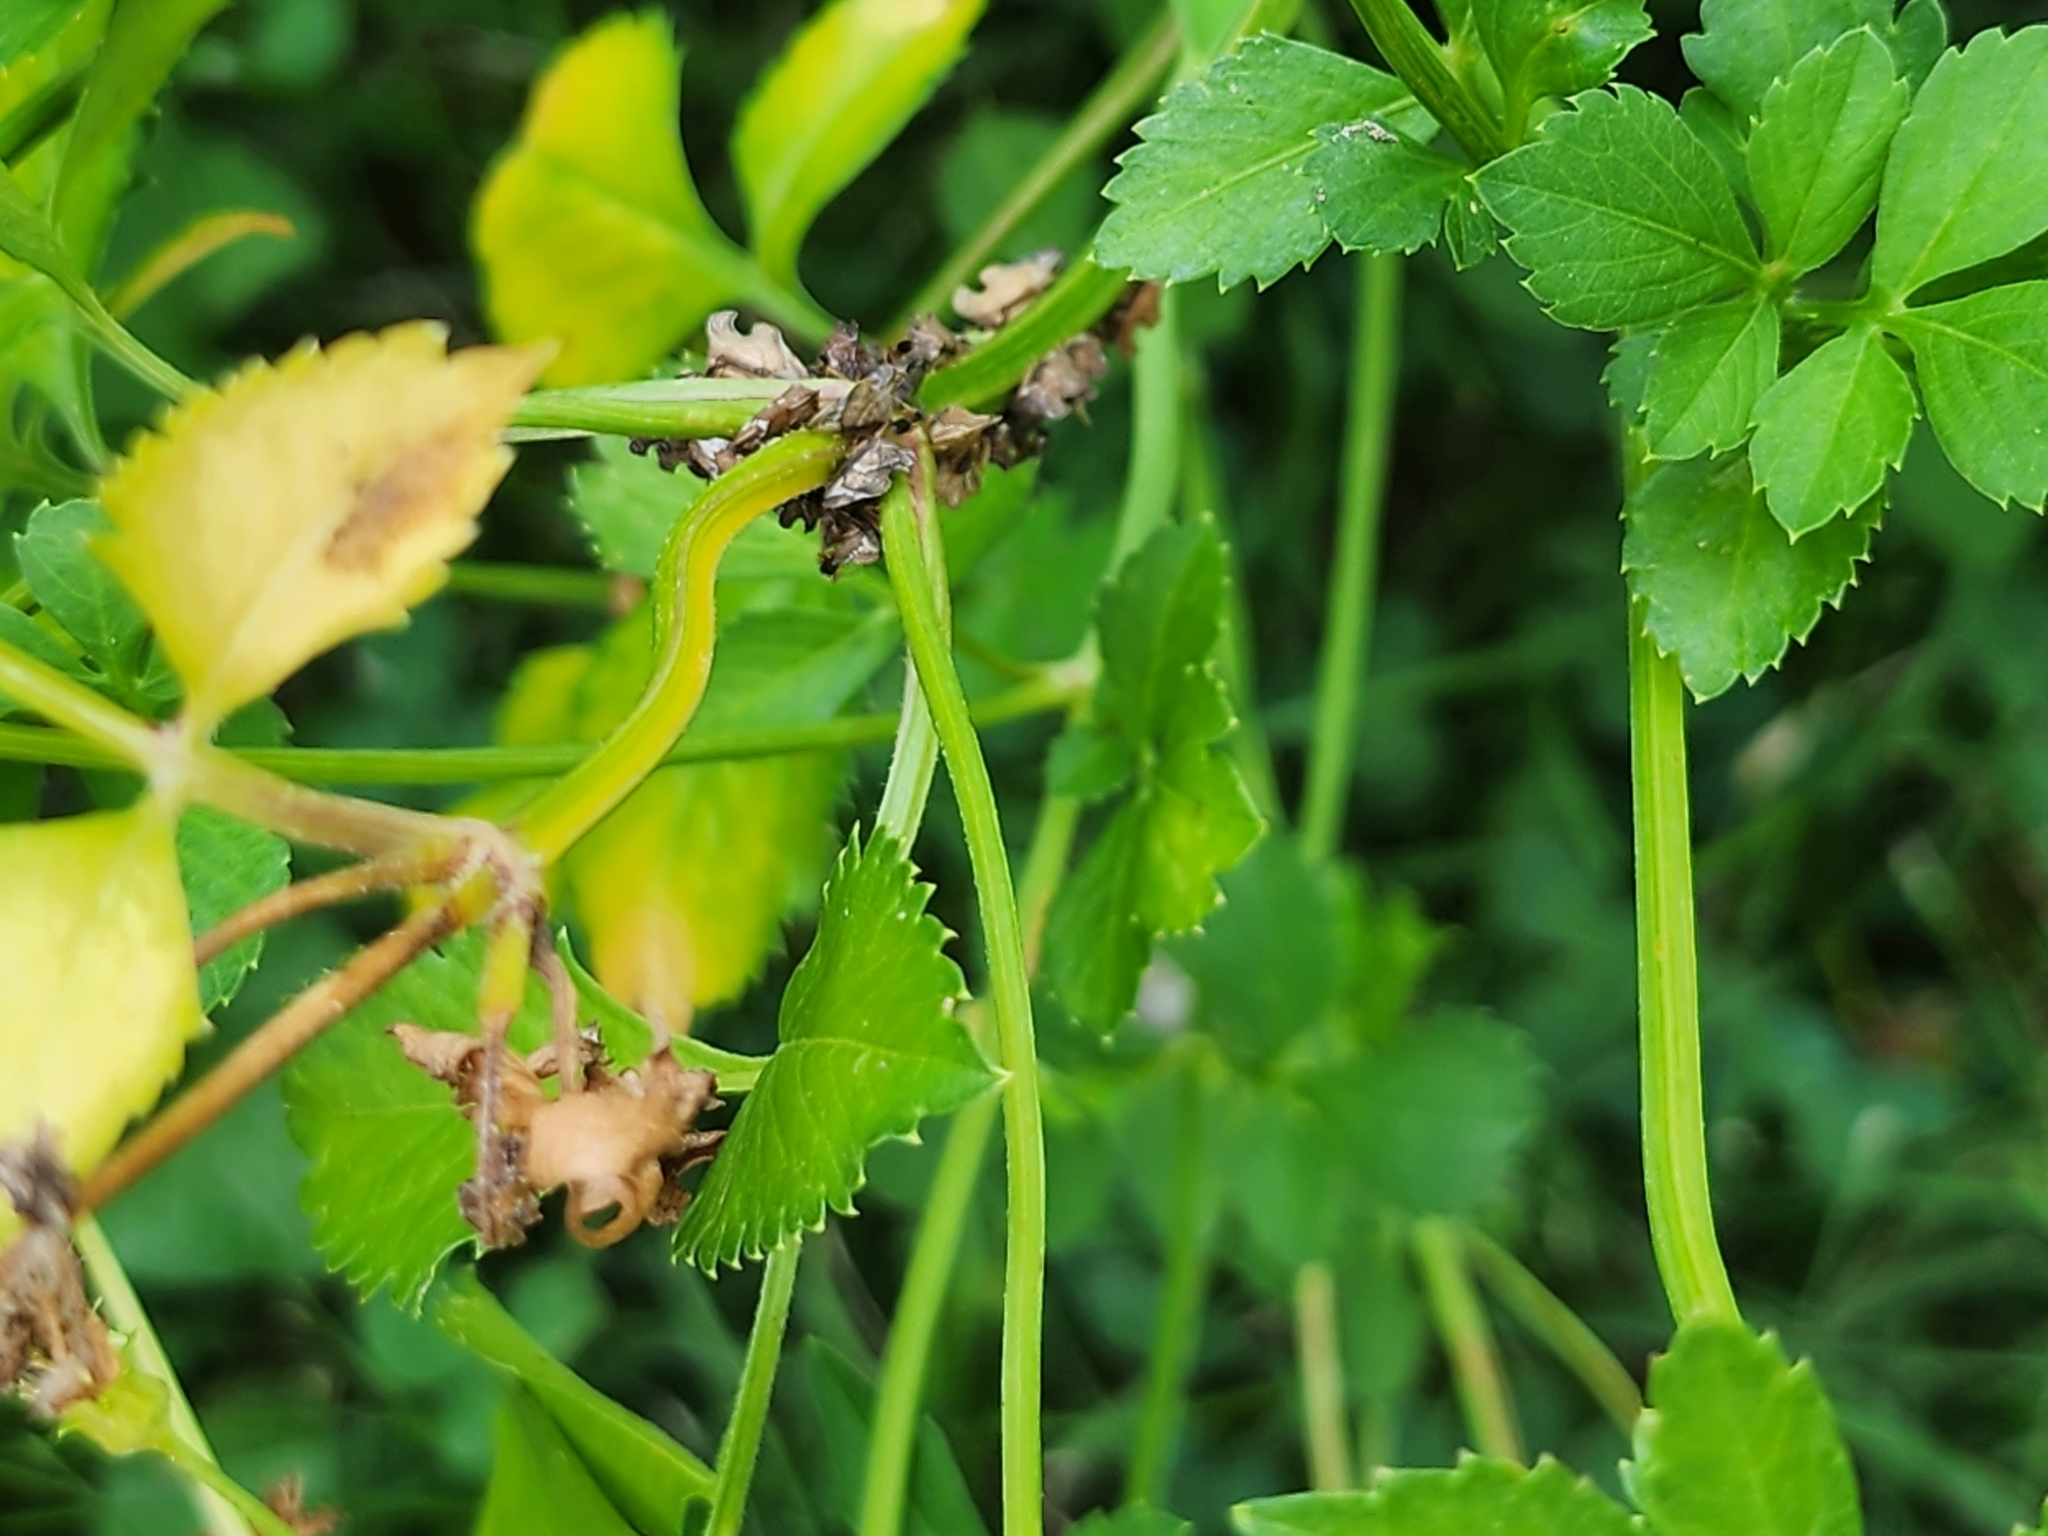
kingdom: Animalia
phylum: Arthropoda
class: Insecta
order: Hemiptera
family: Membracidae
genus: Entylia
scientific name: Entylia carinata
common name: Keeled treehopper
